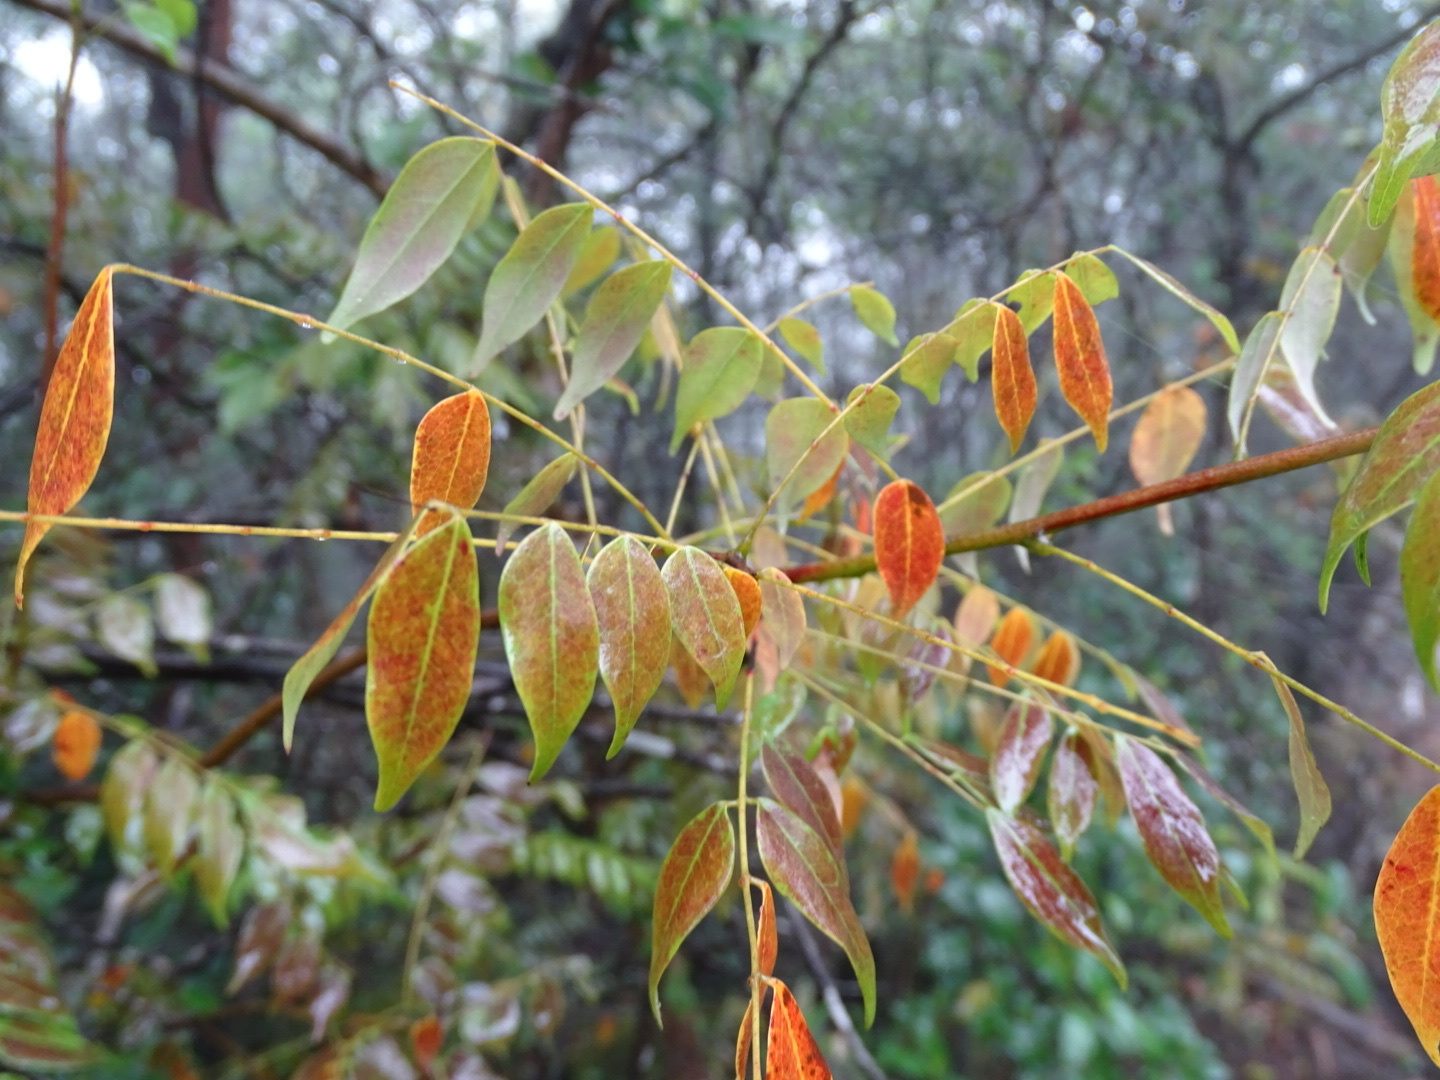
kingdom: Plantae
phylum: Tracheophyta
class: Magnoliopsida
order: Oxalidales
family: Connaraceae
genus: Rourea
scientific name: Rourea microphylla
